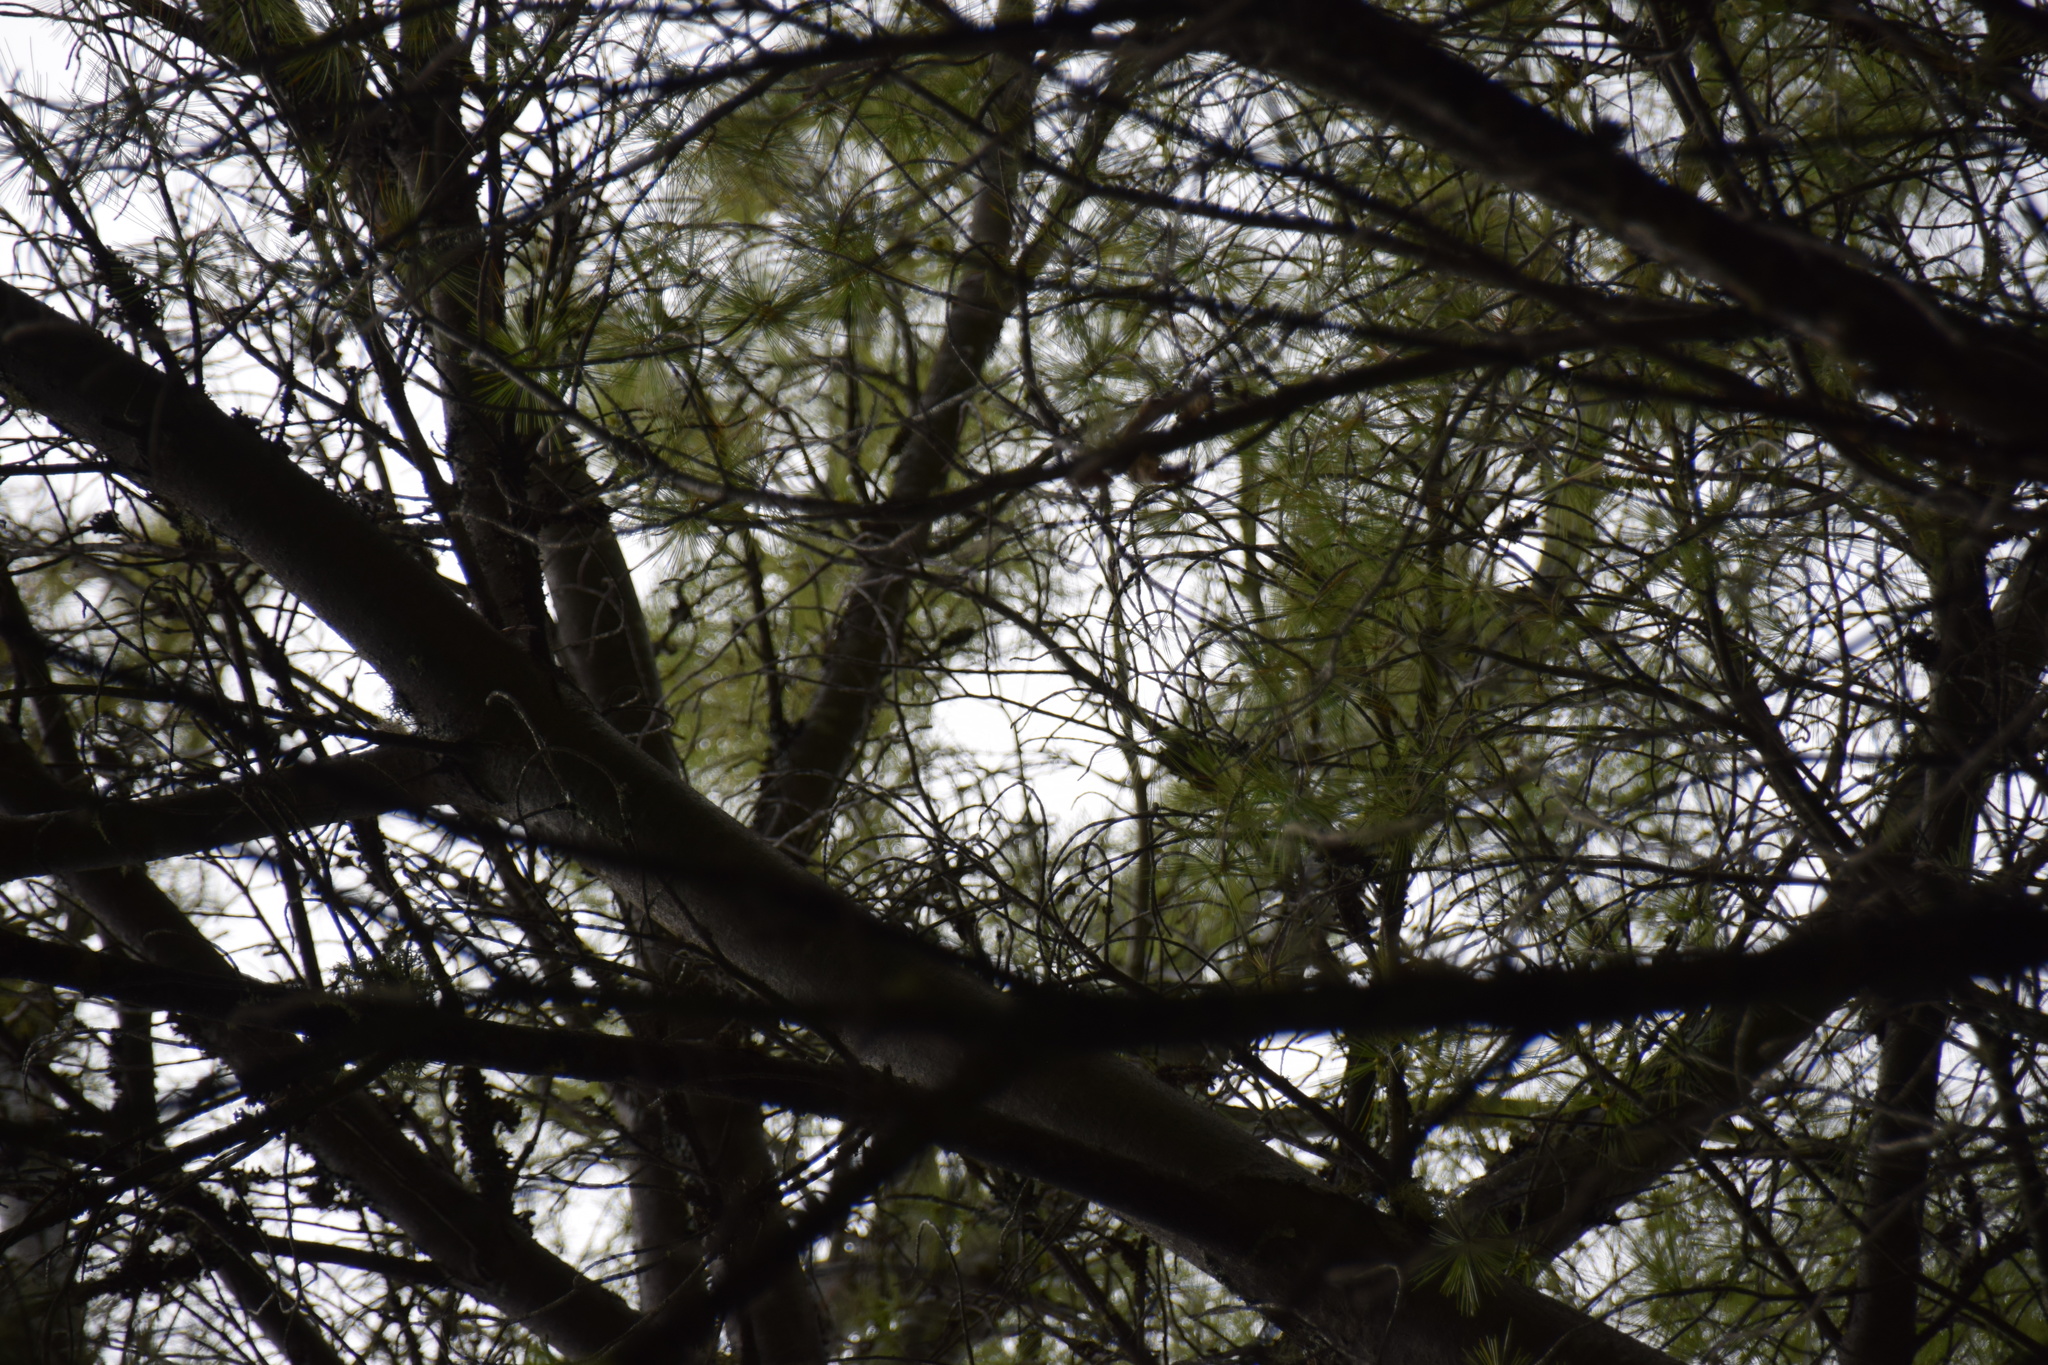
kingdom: Plantae
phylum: Tracheophyta
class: Pinopsida
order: Pinales
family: Pinaceae
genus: Pinus
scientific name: Pinus strobus
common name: Weymouth pine
